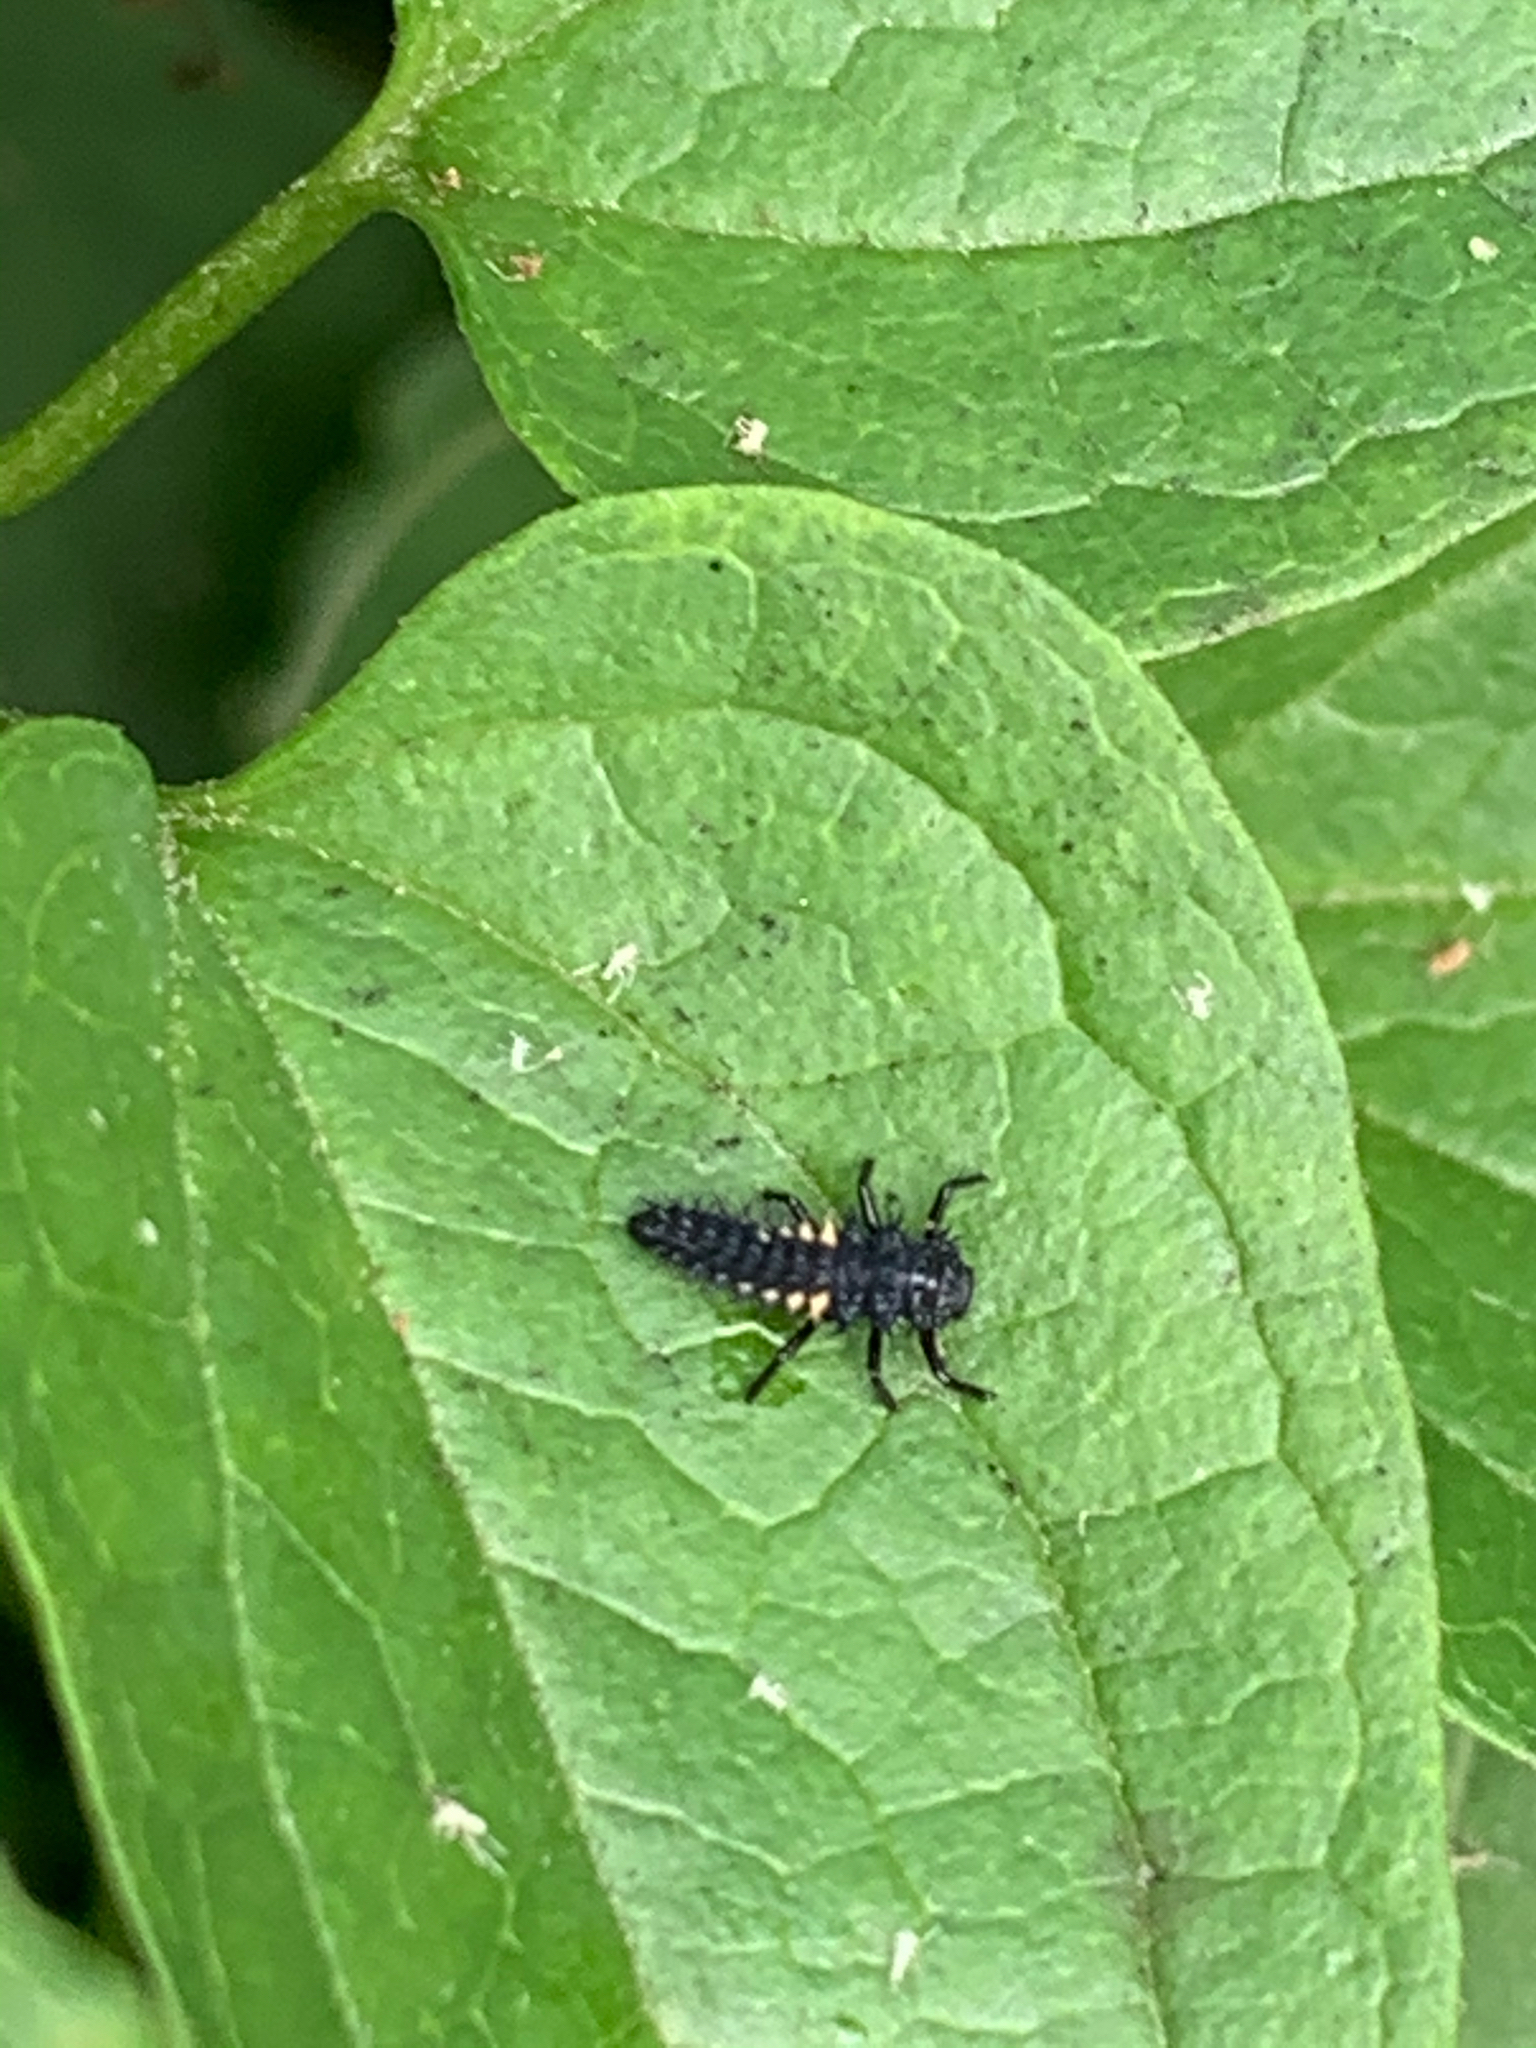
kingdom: Animalia
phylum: Arthropoda
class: Insecta
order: Coleoptera
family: Coccinellidae
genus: Harmonia
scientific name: Harmonia axyridis
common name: Harlequin ladybird
